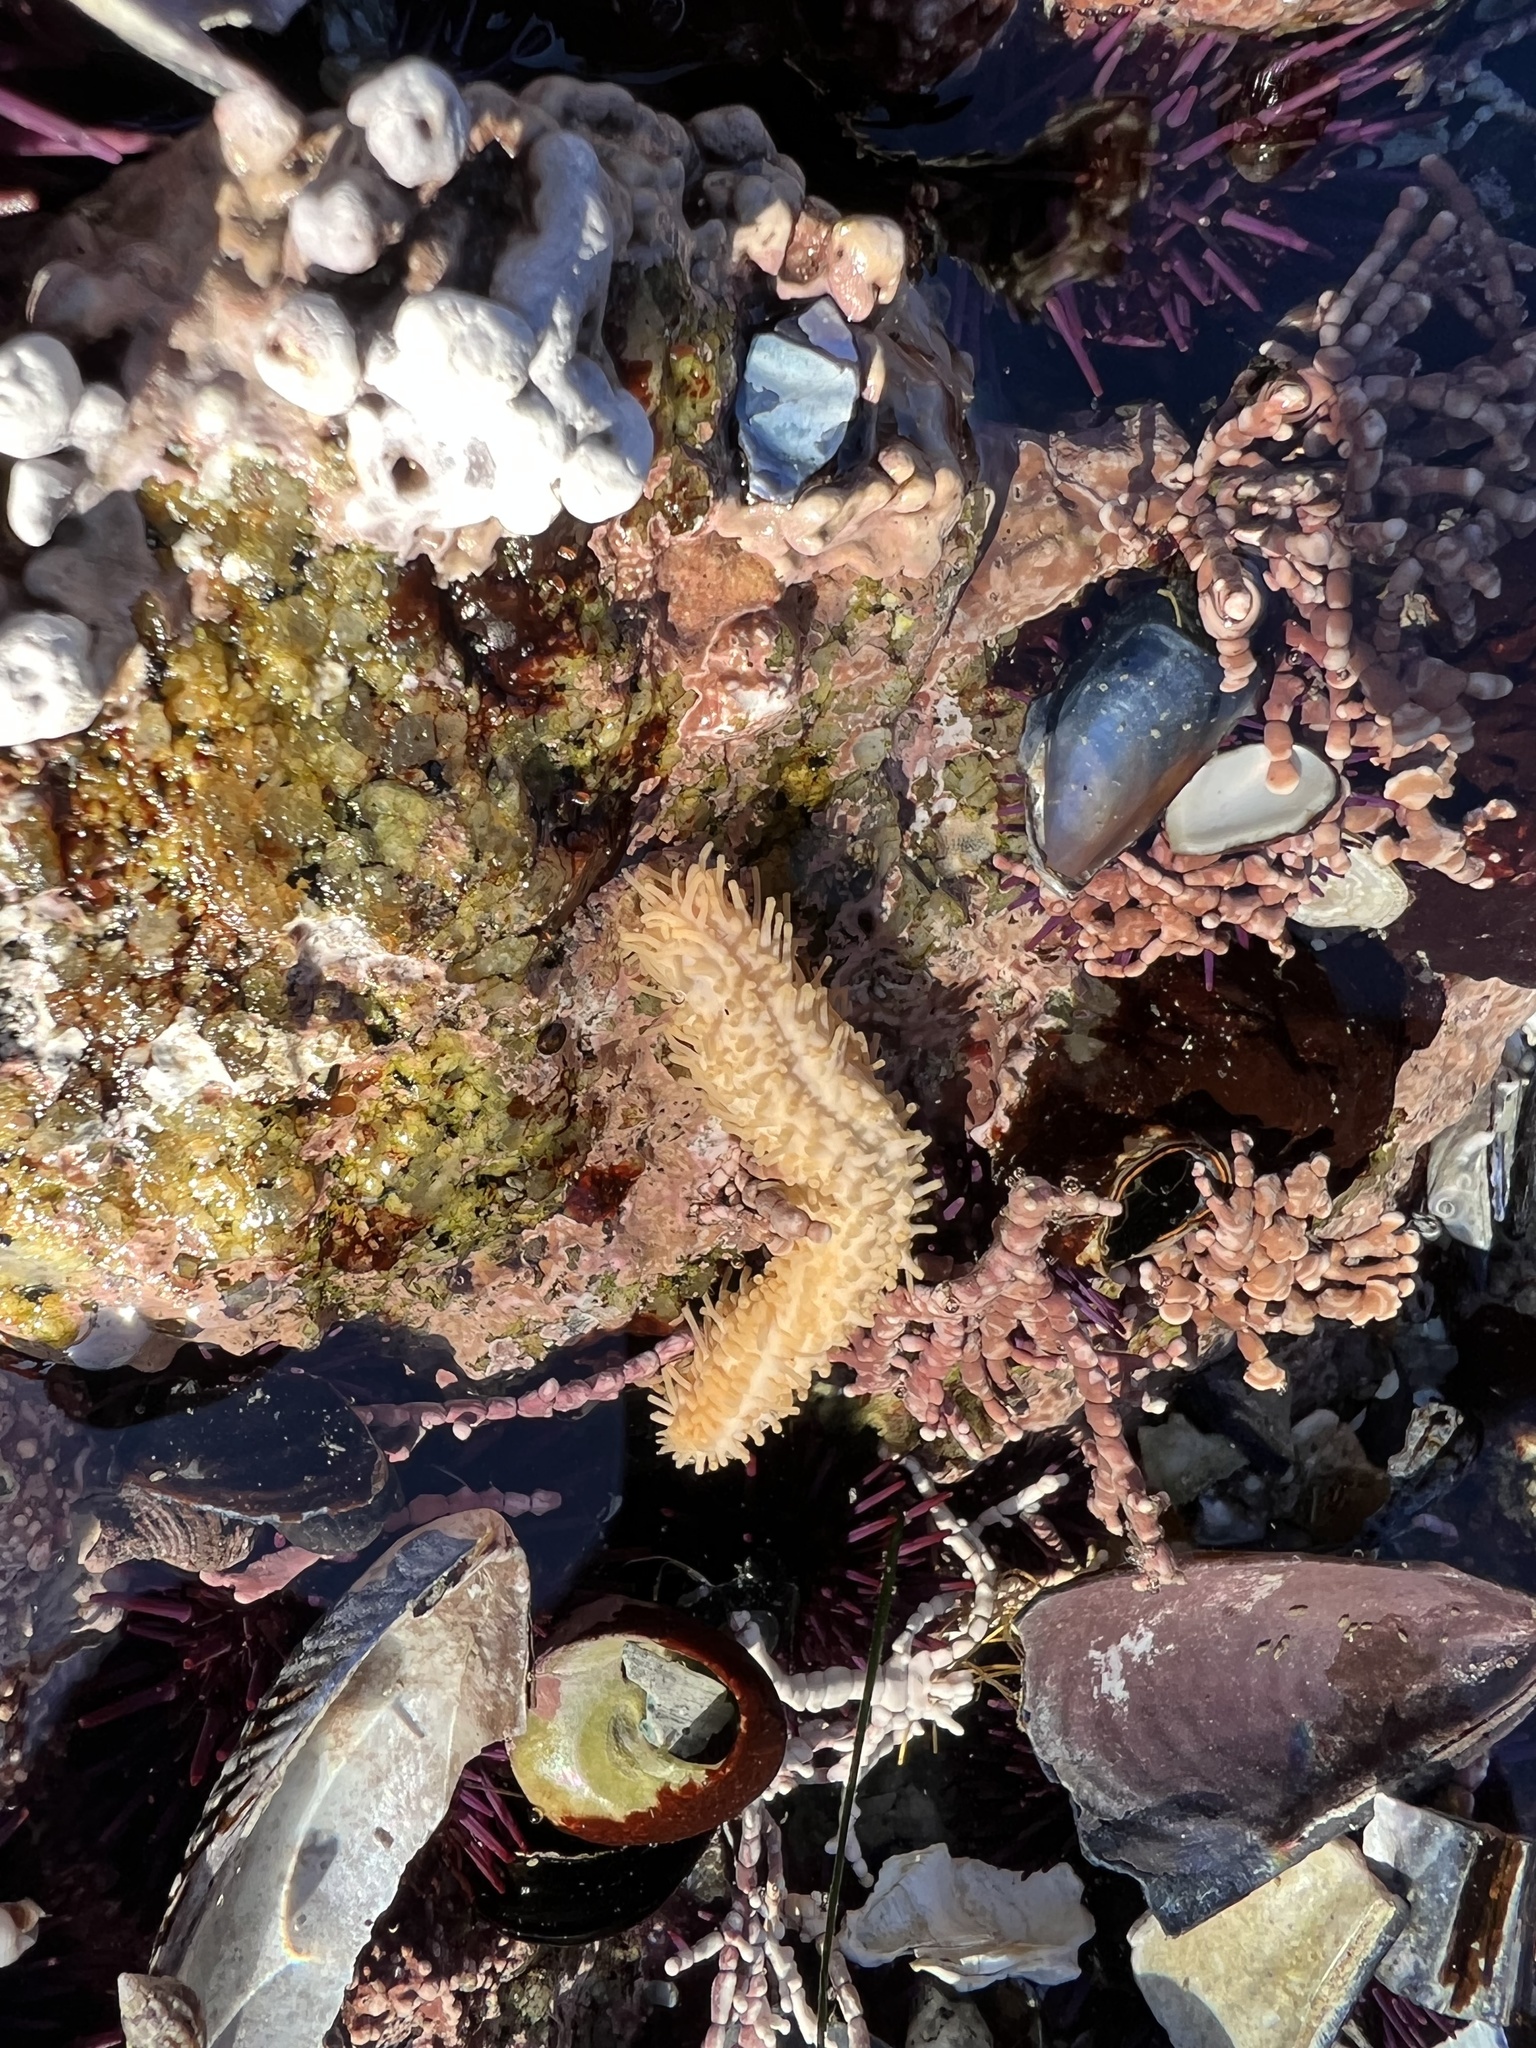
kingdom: Animalia
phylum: Echinodermata
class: Holothuroidea
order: Dendrochirotida
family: Sclerodactylidae
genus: Eupentacta
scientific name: Eupentacta quinquesemita
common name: Pentamerous sea cucumber
